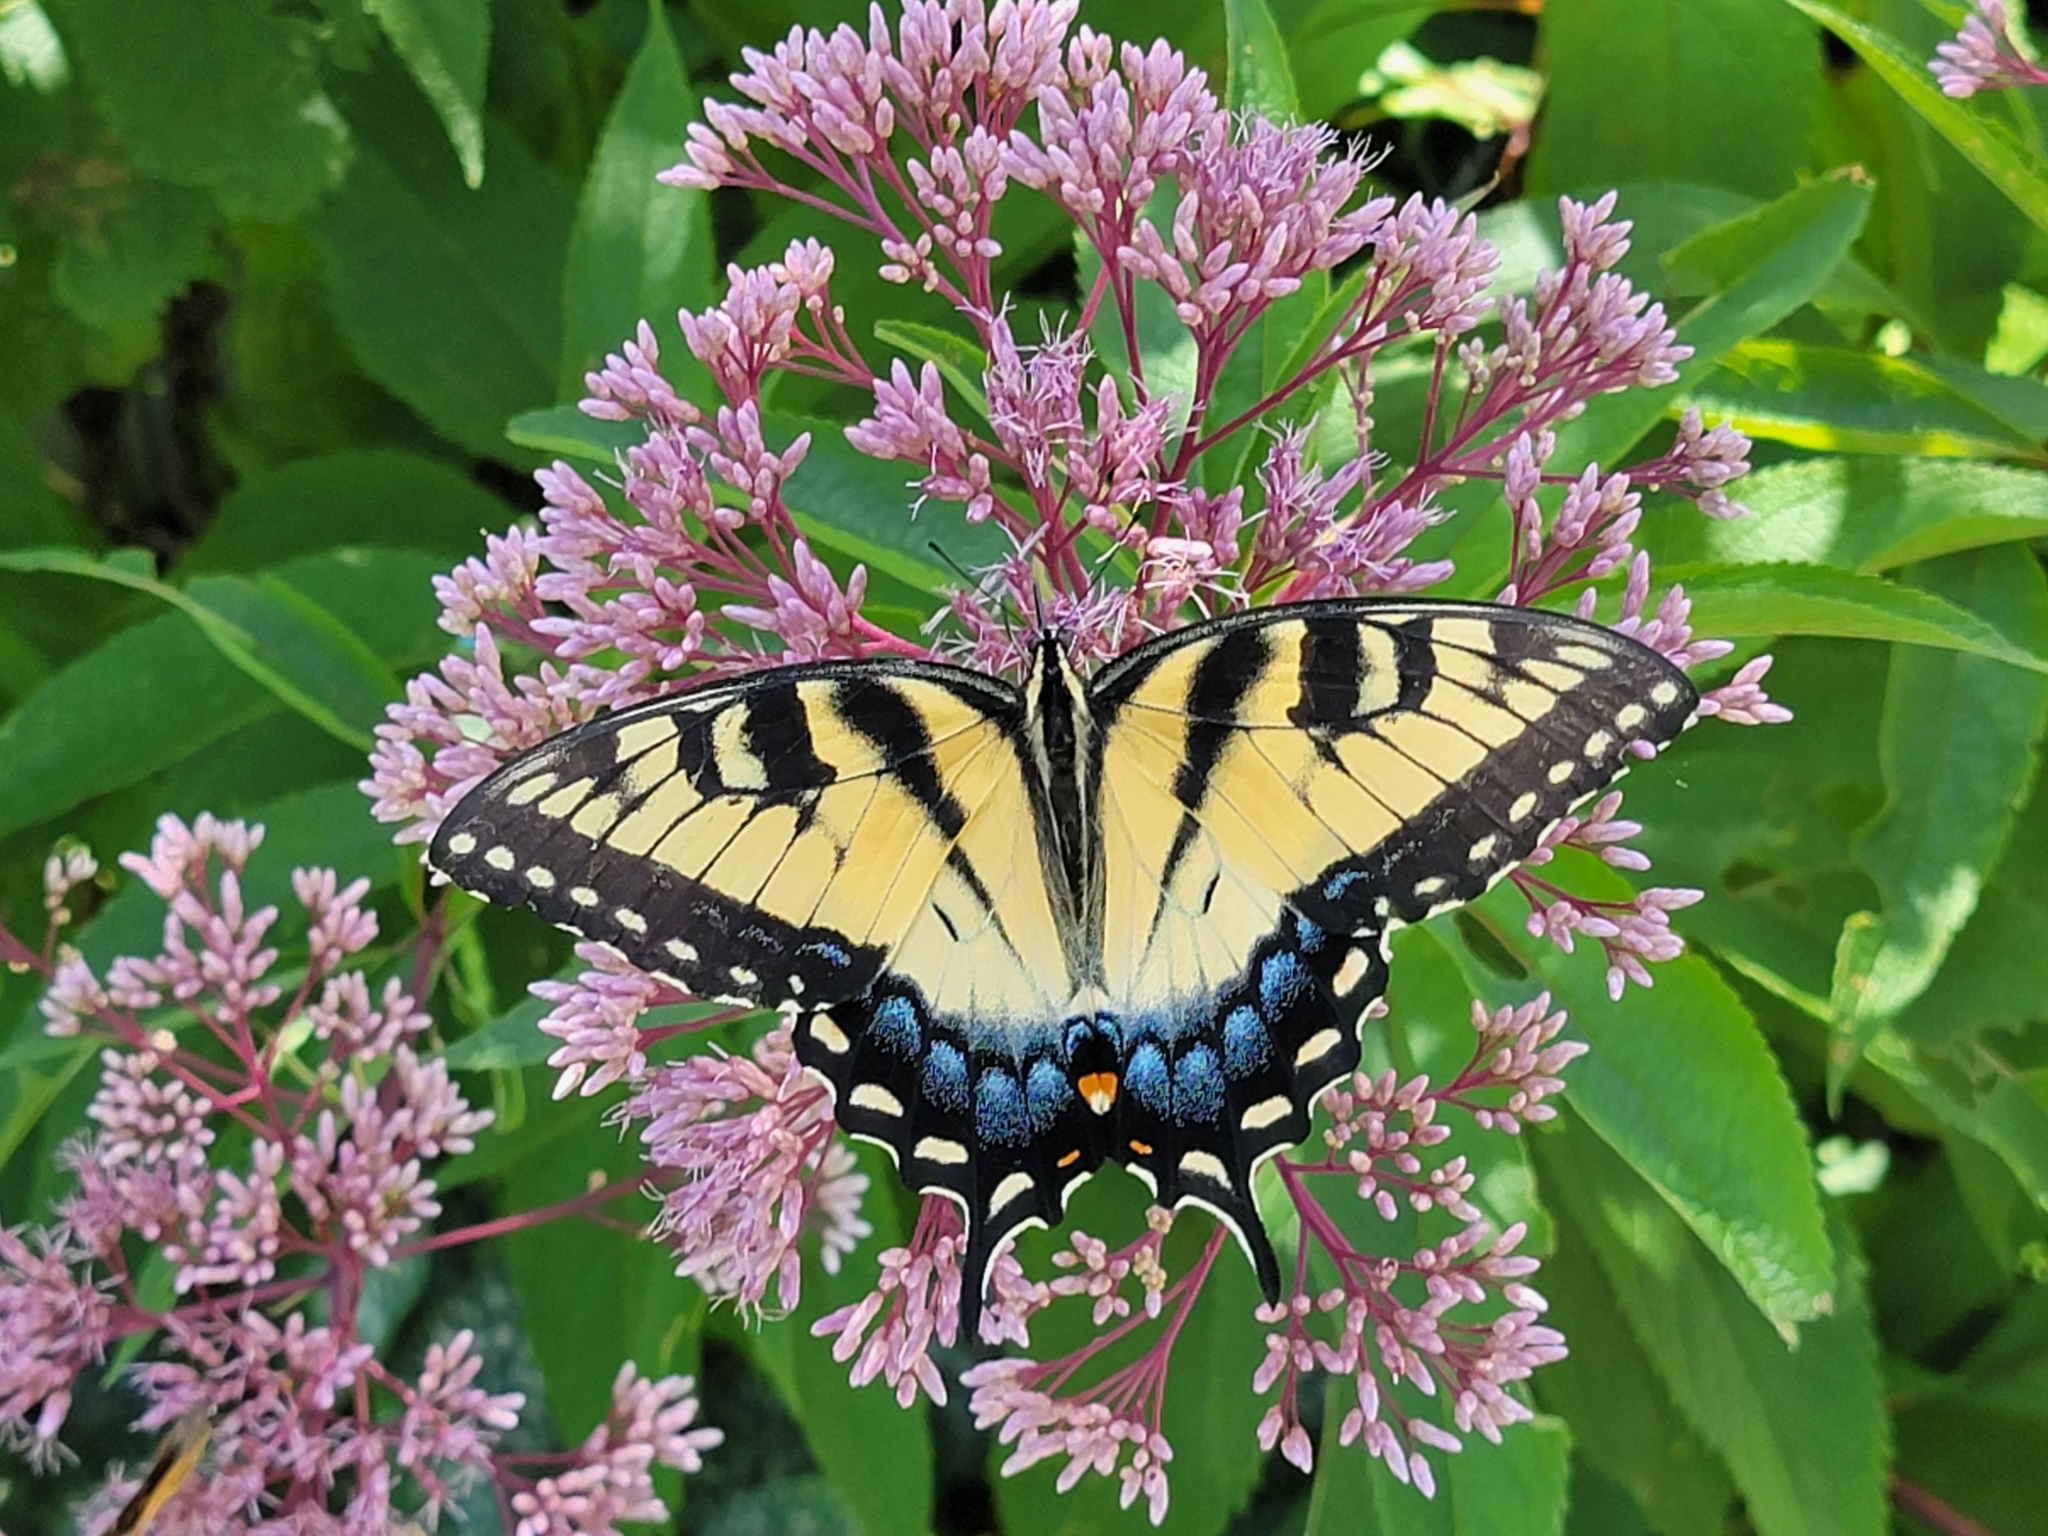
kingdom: Animalia
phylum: Arthropoda
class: Insecta
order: Lepidoptera
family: Papilionidae
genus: Papilio
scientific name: Papilio glaucus
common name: Tiger swallowtail
